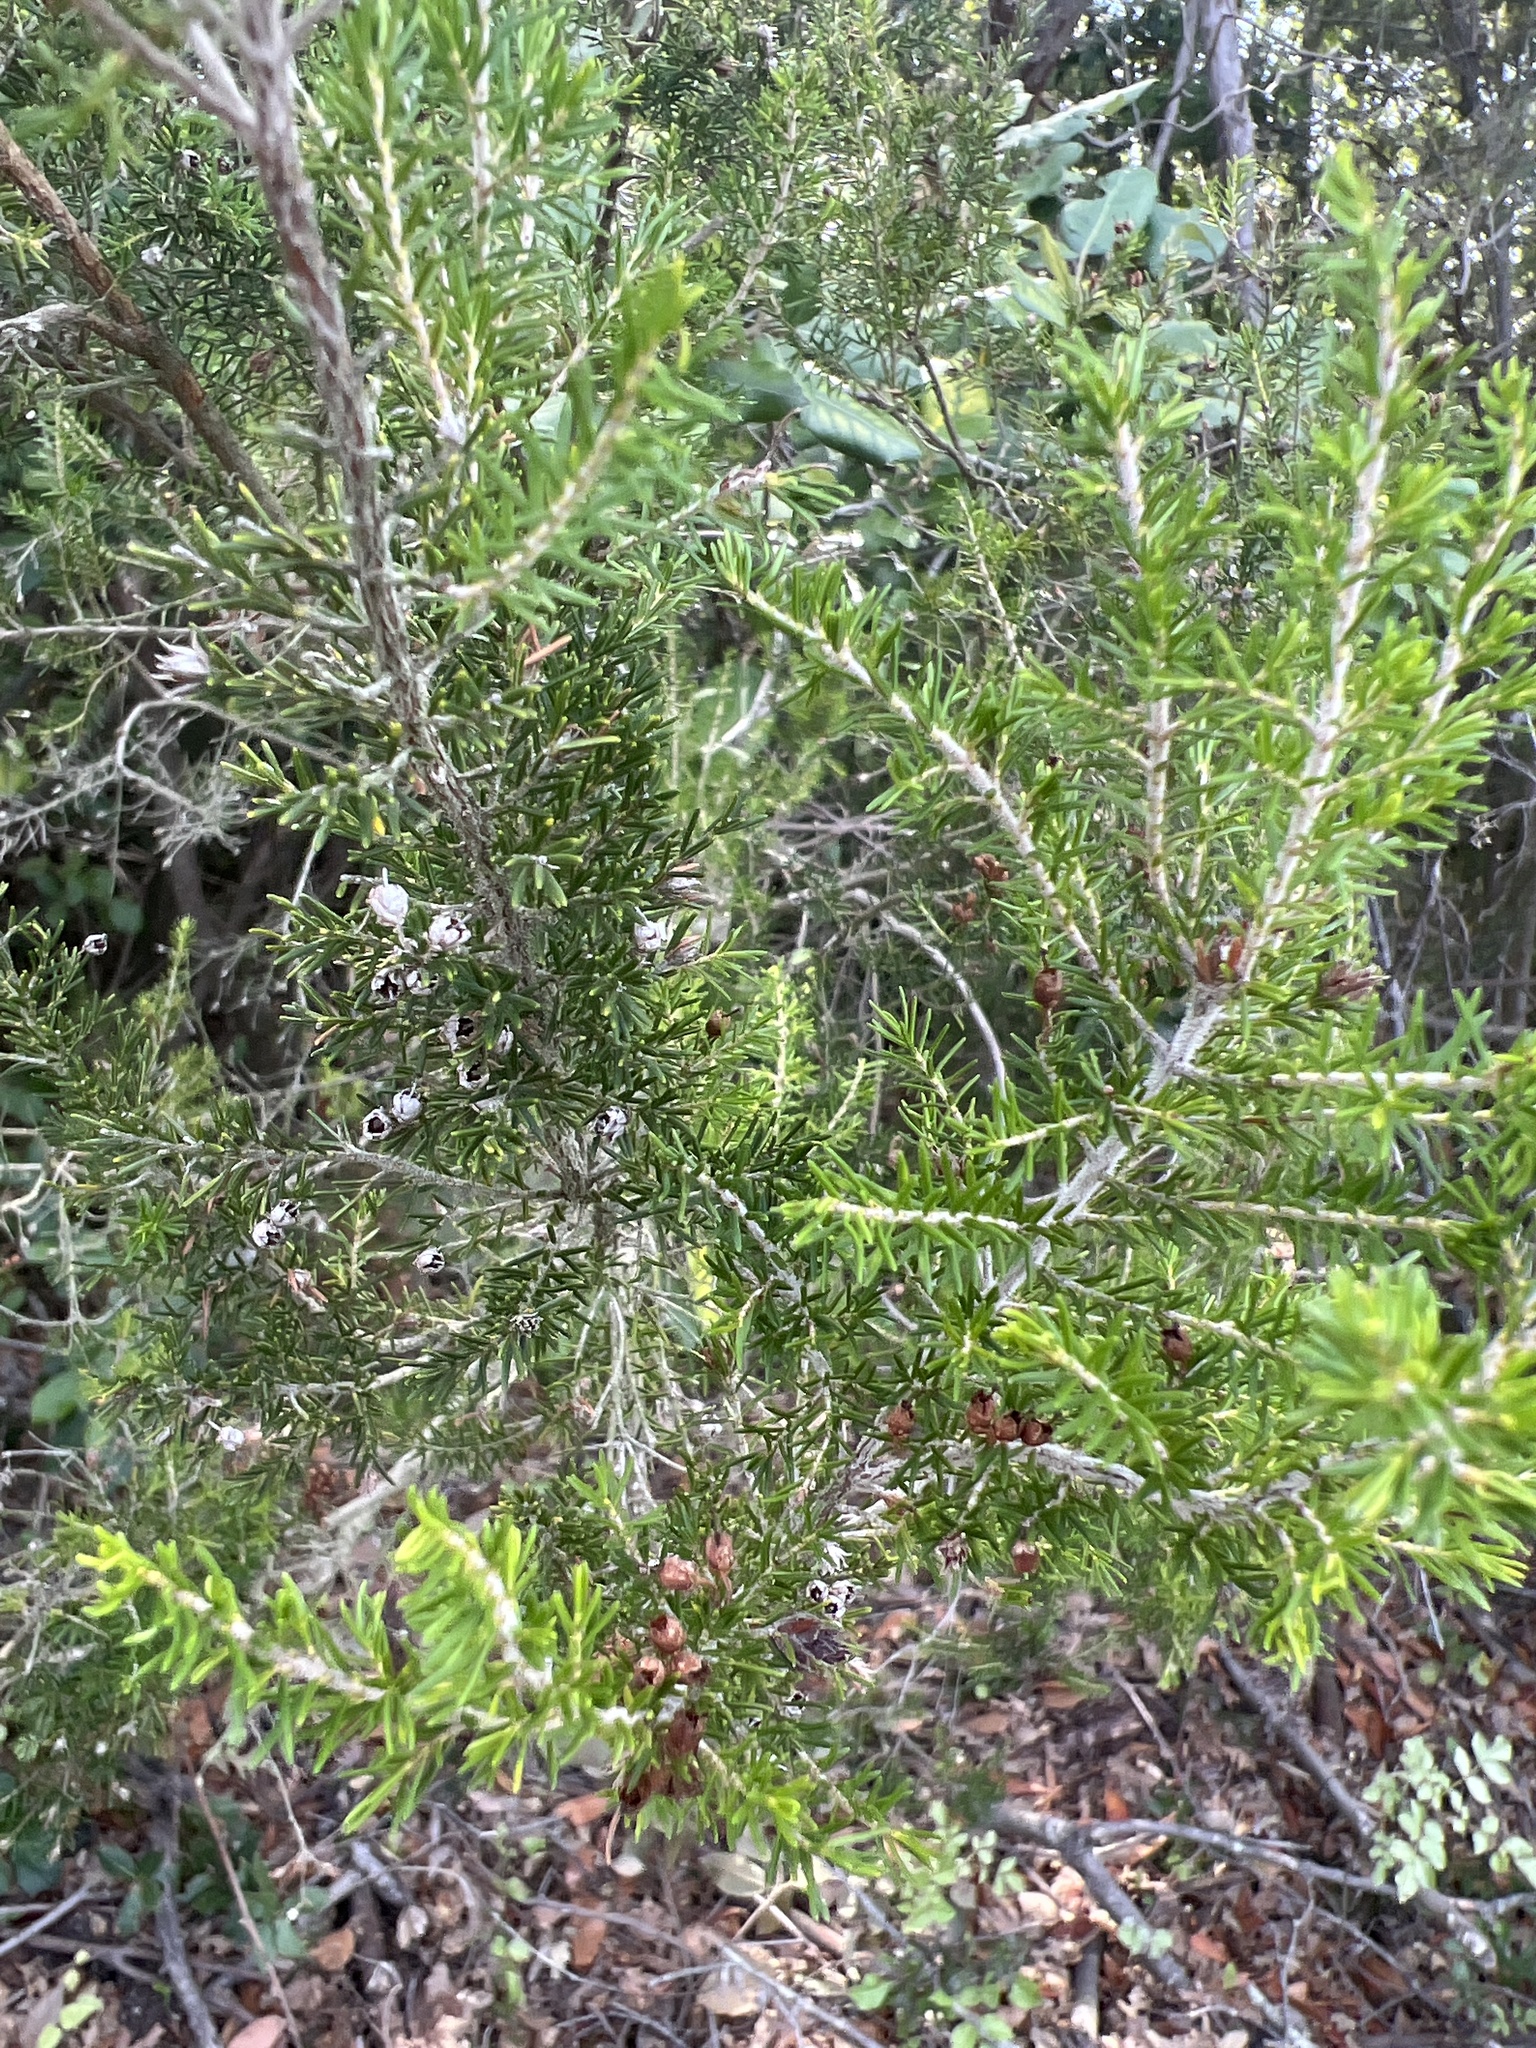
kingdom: Plantae
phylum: Tracheophyta
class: Magnoliopsida
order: Ericales
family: Ericaceae
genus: Erica
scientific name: Erica arborea
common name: Tree heath
